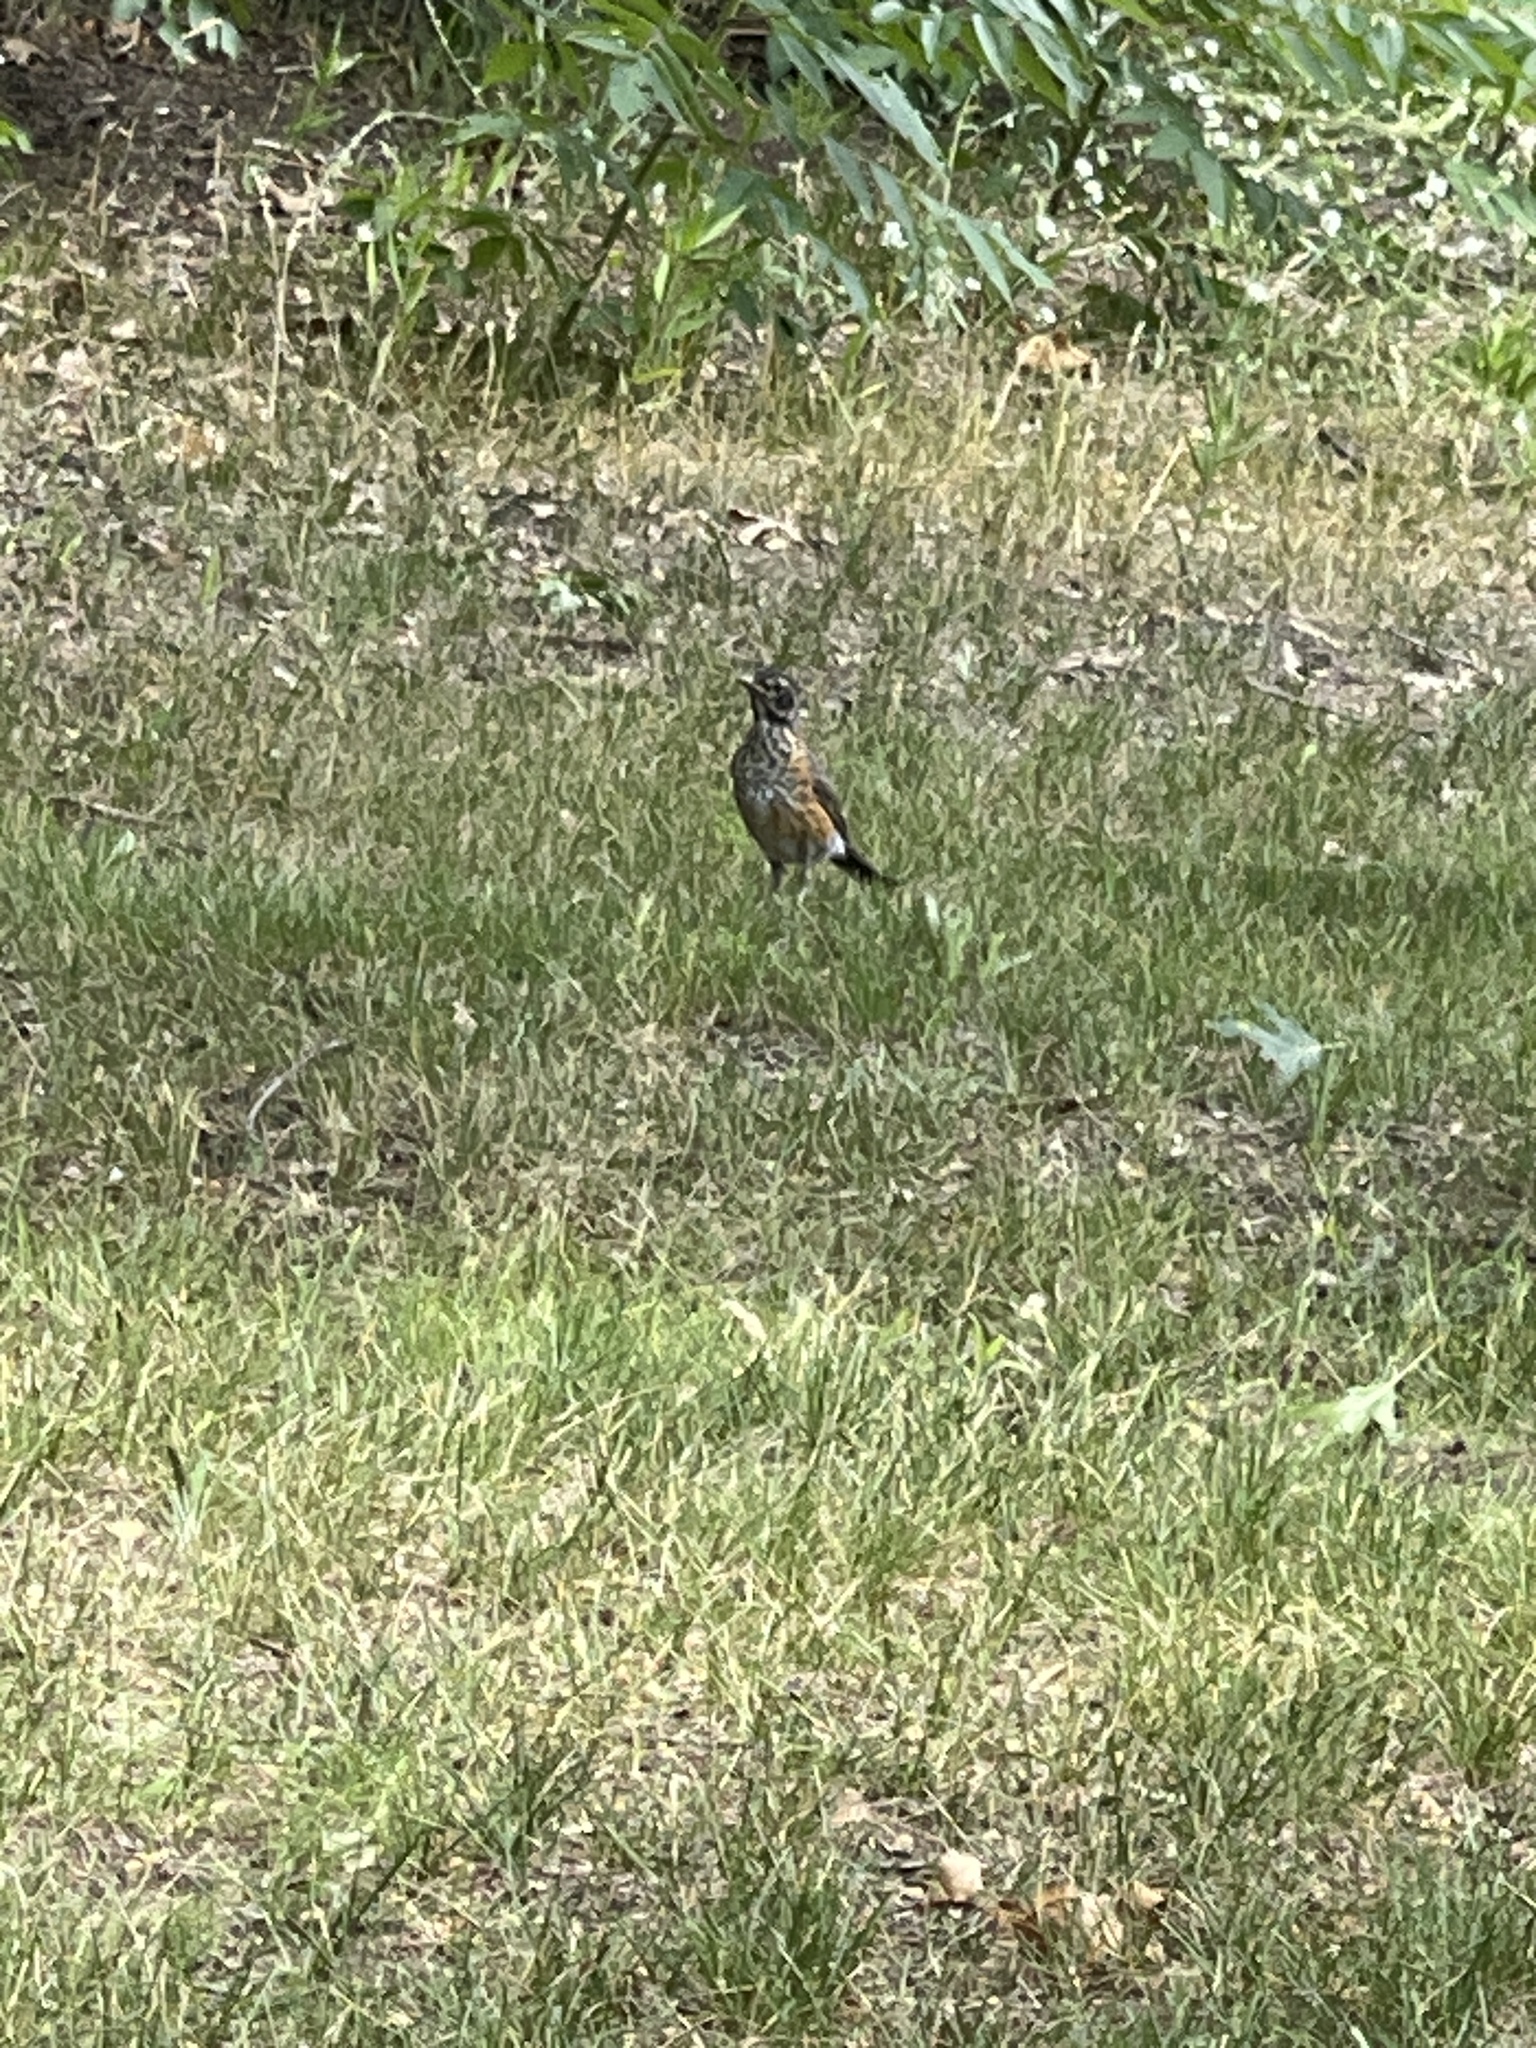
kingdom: Animalia
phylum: Chordata
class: Aves
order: Passeriformes
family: Turdidae
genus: Turdus
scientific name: Turdus migratorius
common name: American robin
